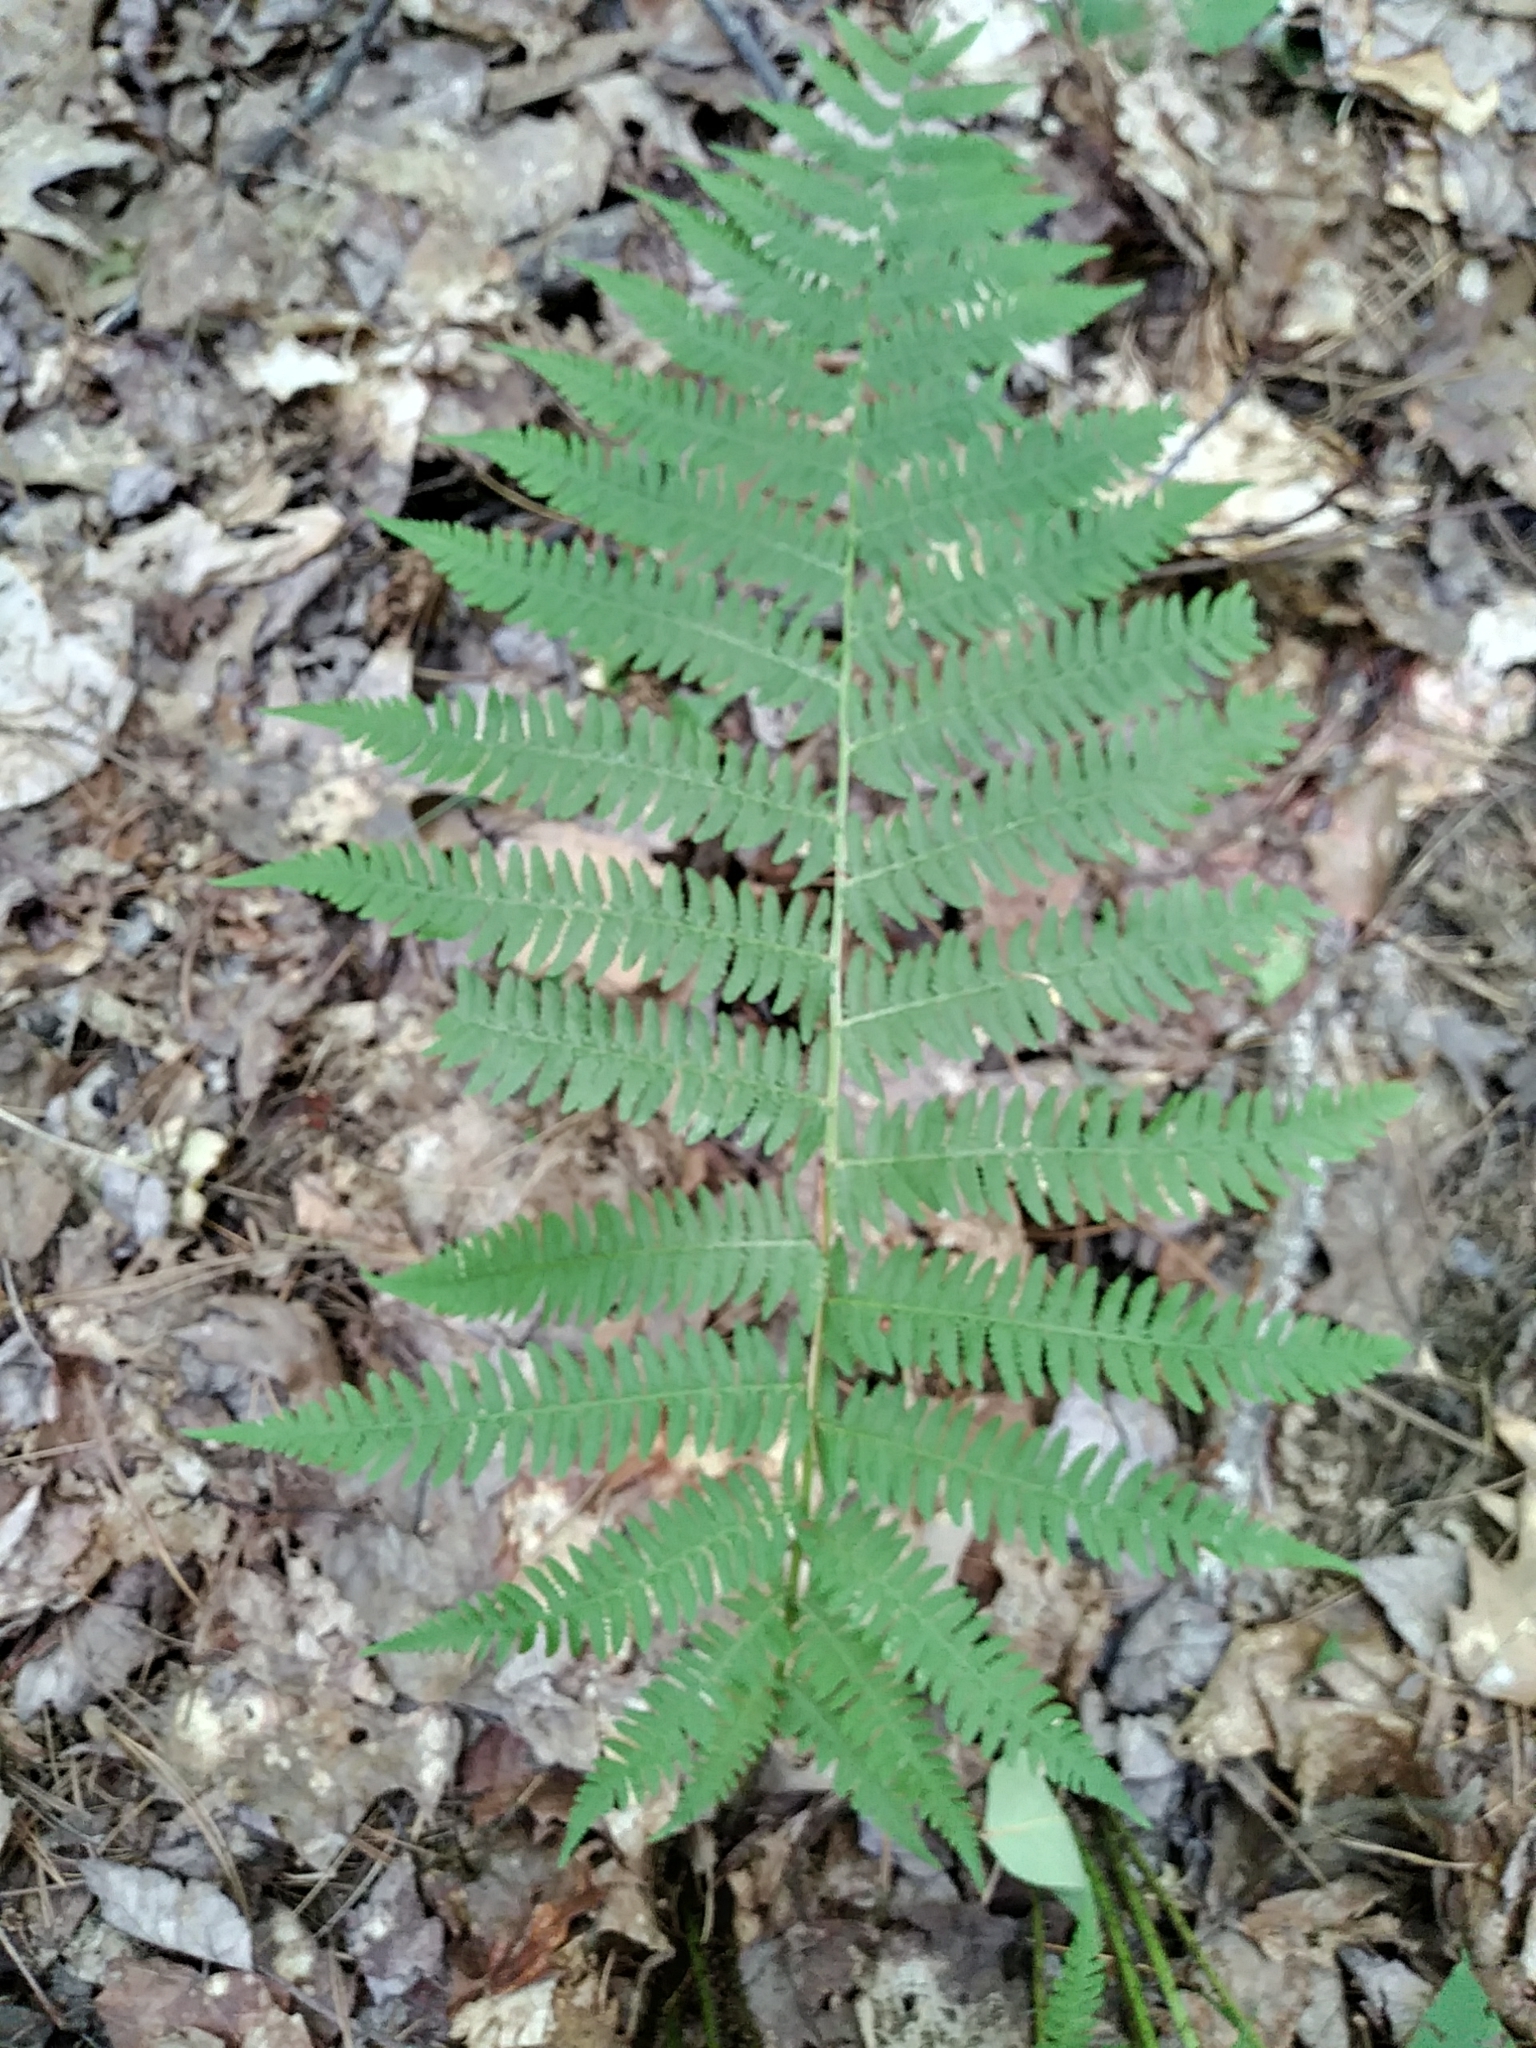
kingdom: Plantae
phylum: Tracheophyta
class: Polypodiopsida
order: Polypodiales
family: Athyriaceae
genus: Athyrium
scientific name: Athyrium angustum
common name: Northern lady fern
